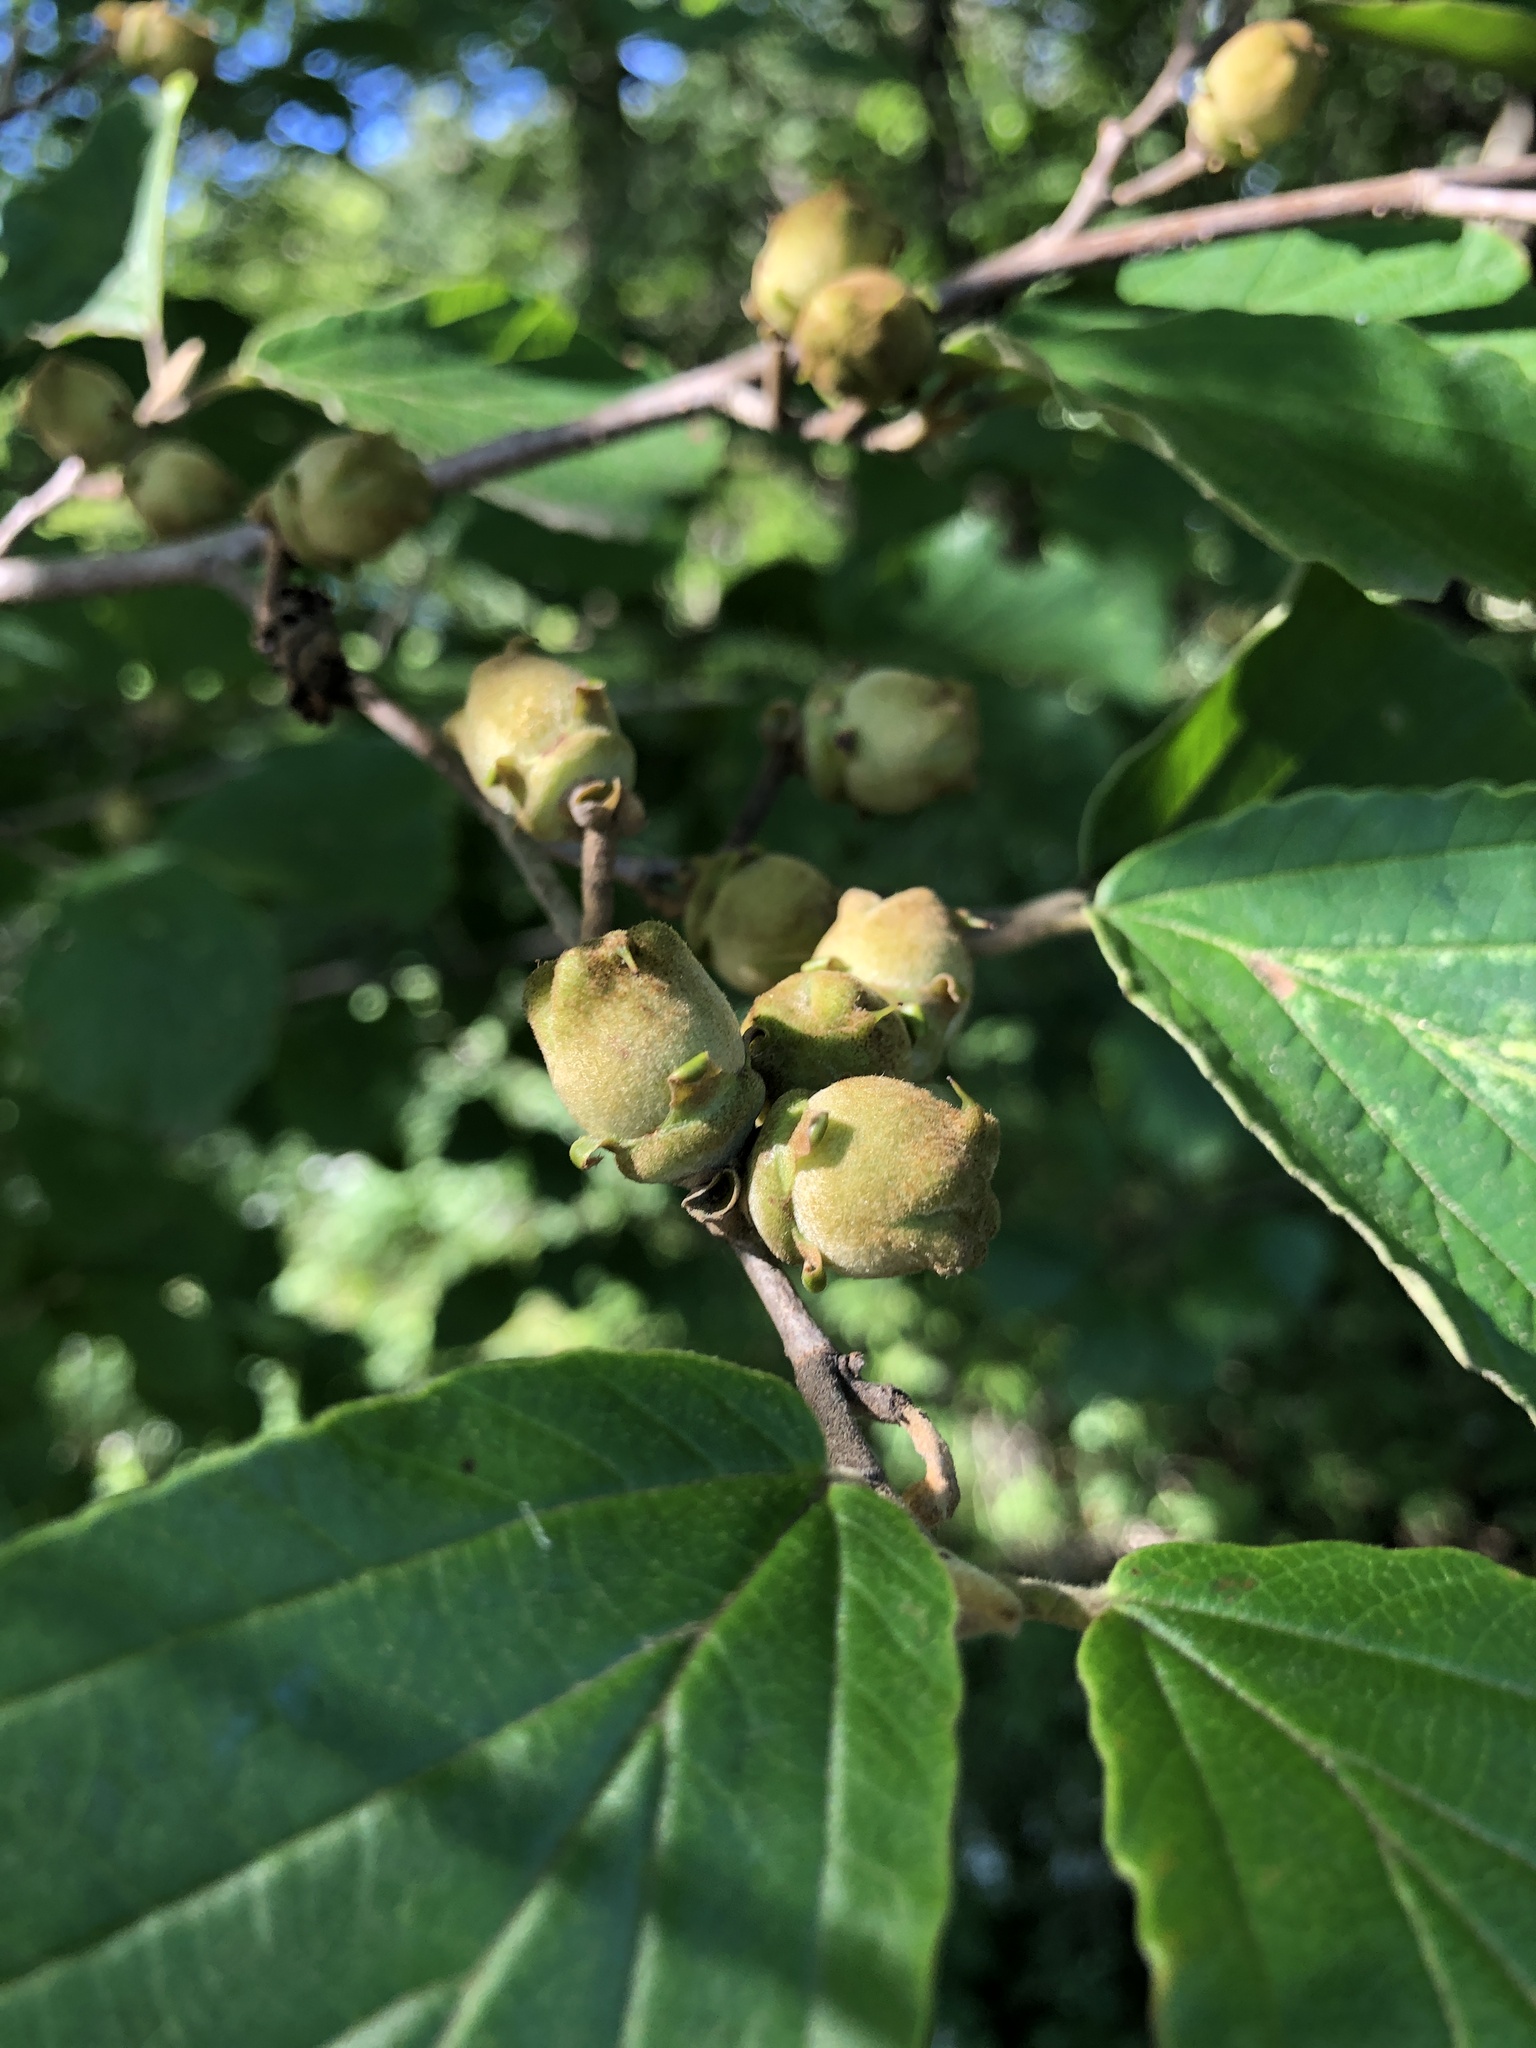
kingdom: Plantae
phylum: Tracheophyta
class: Magnoliopsida
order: Saxifragales
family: Hamamelidaceae
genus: Hamamelis
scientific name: Hamamelis virginiana
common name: Witch-hazel
